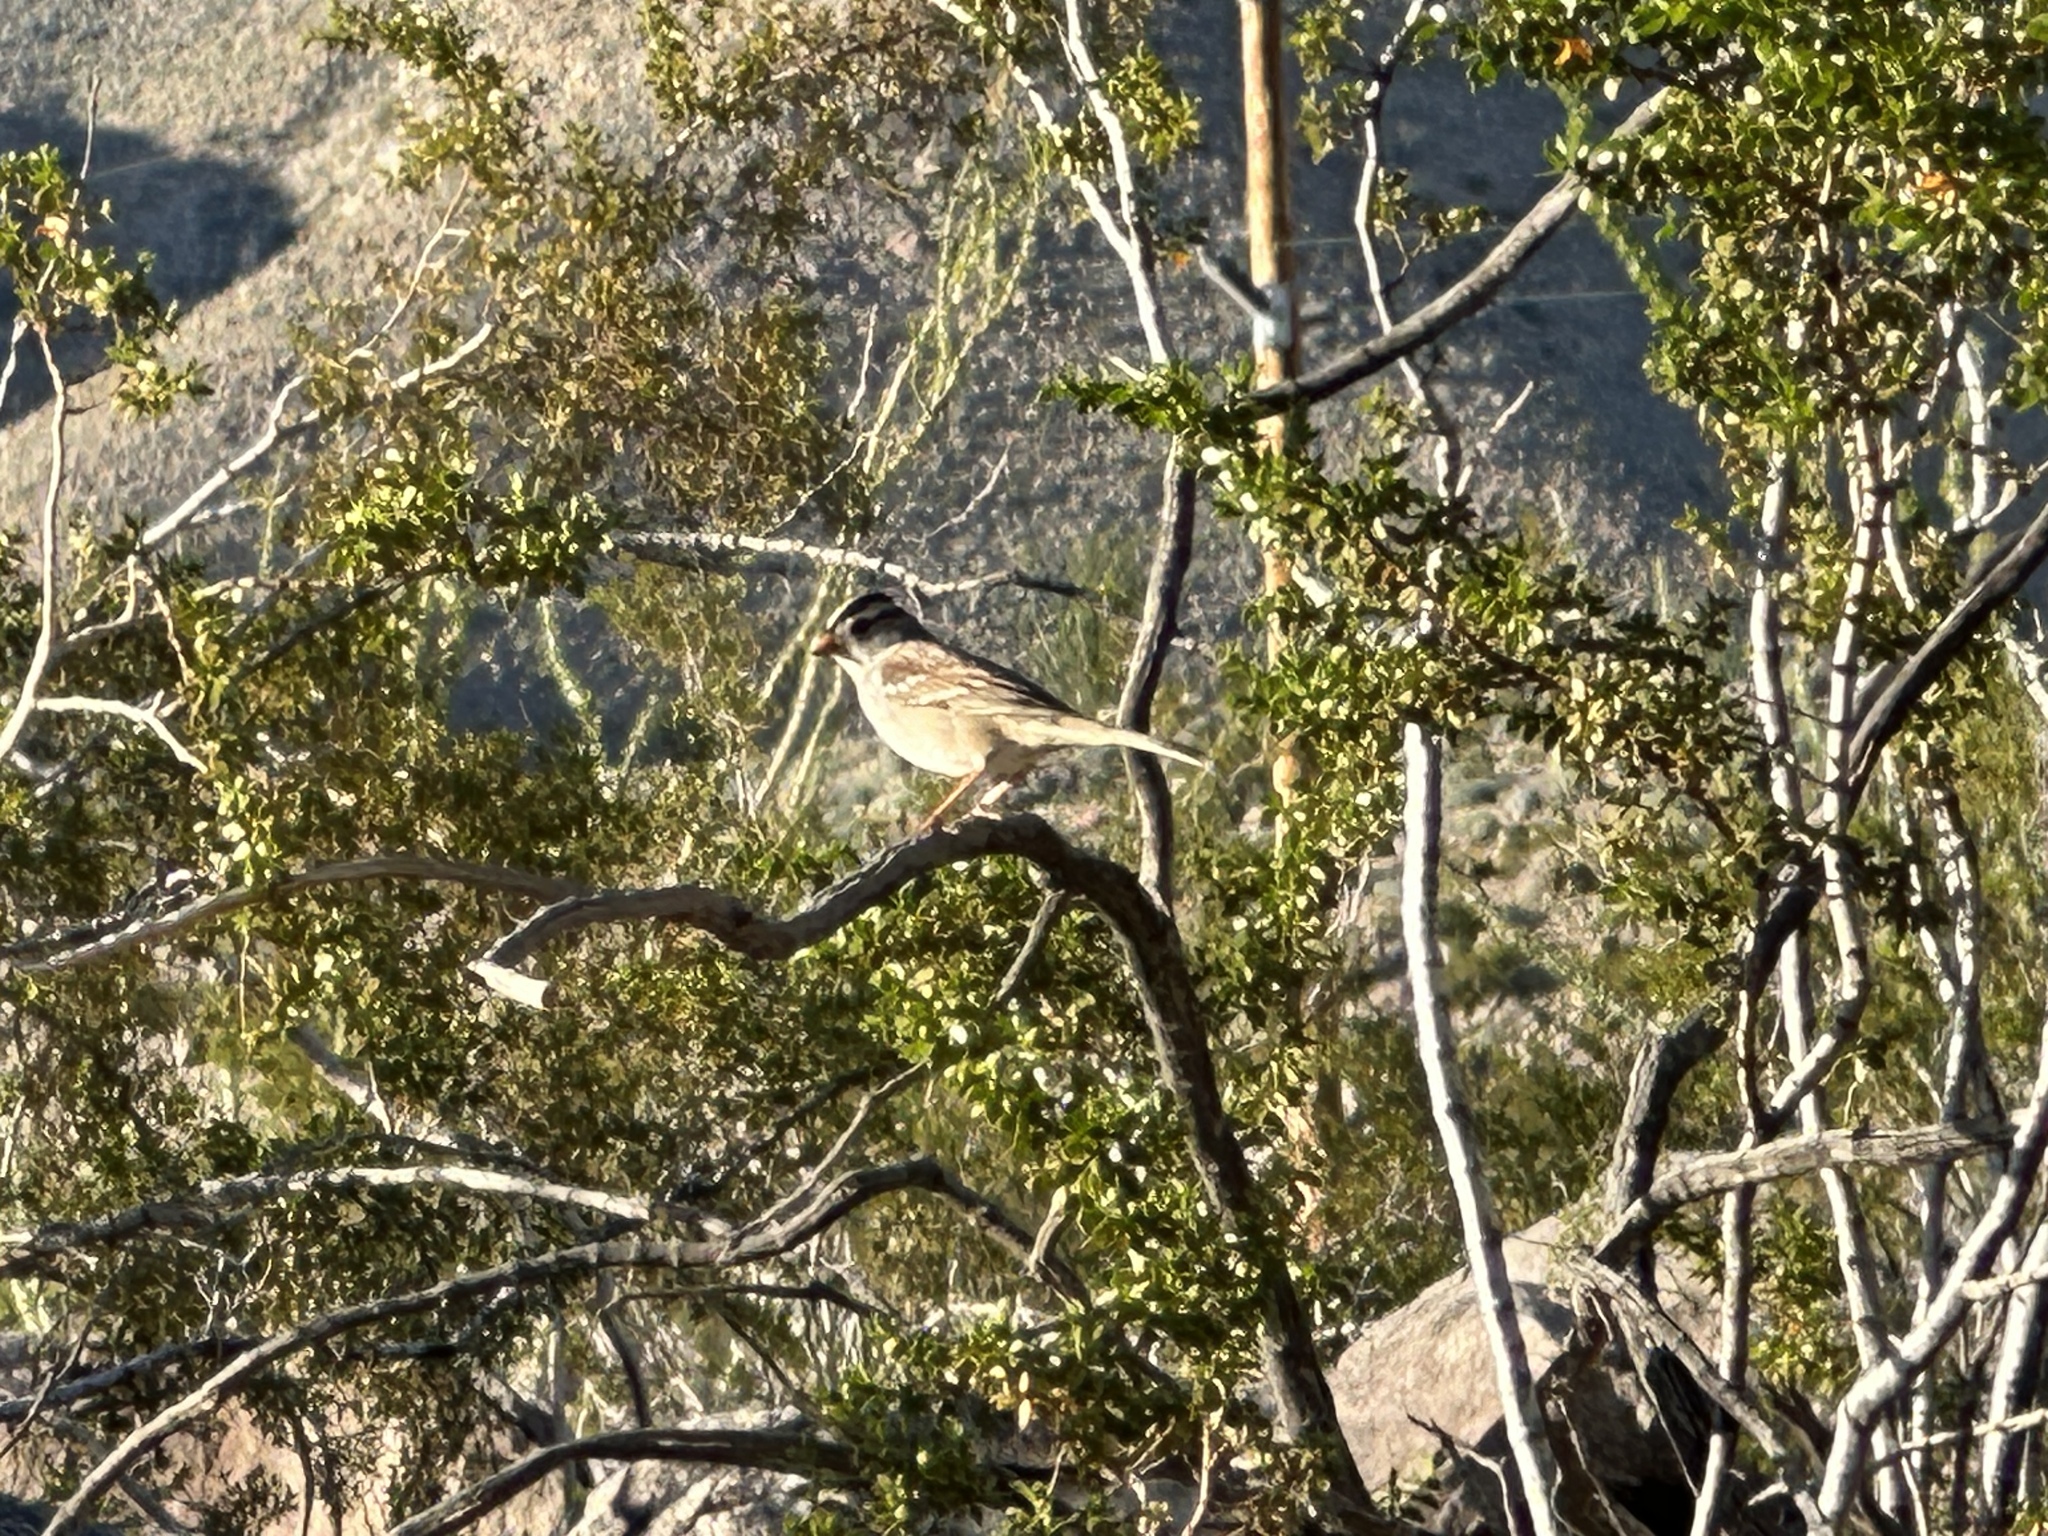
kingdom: Animalia
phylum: Chordata
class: Aves
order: Passeriformes
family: Passerellidae
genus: Zonotrichia
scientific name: Zonotrichia leucophrys
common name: White-crowned sparrow
